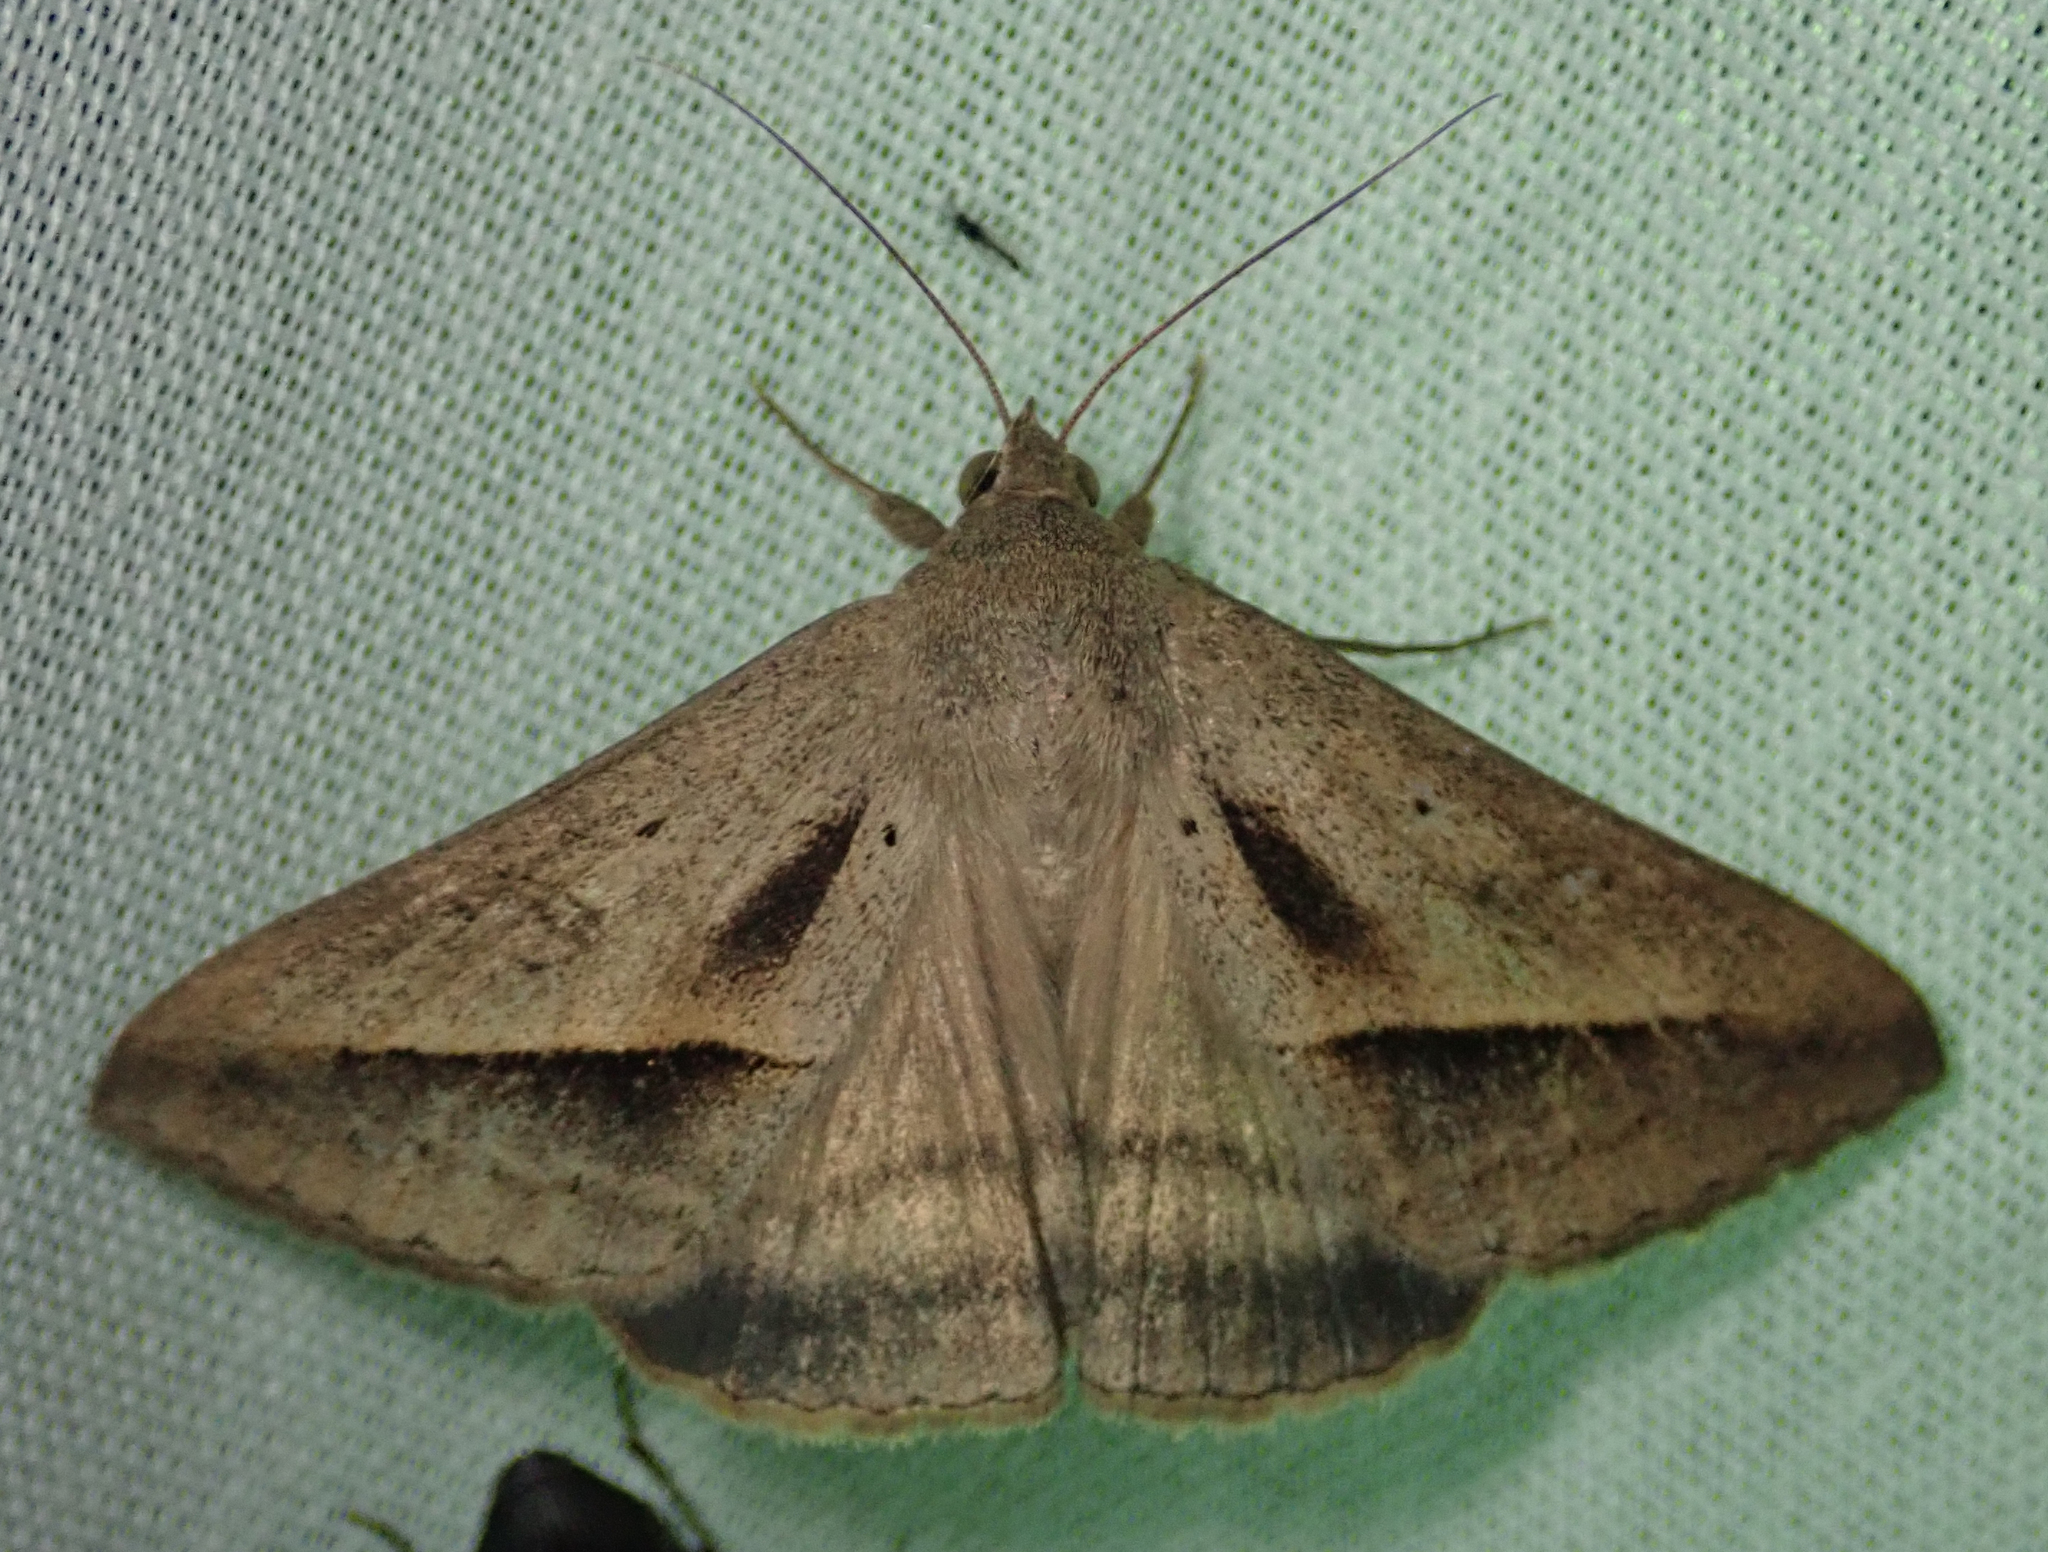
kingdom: Animalia
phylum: Arthropoda
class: Insecta
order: Lepidoptera
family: Erebidae
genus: Mocis
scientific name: Mocis proverai
